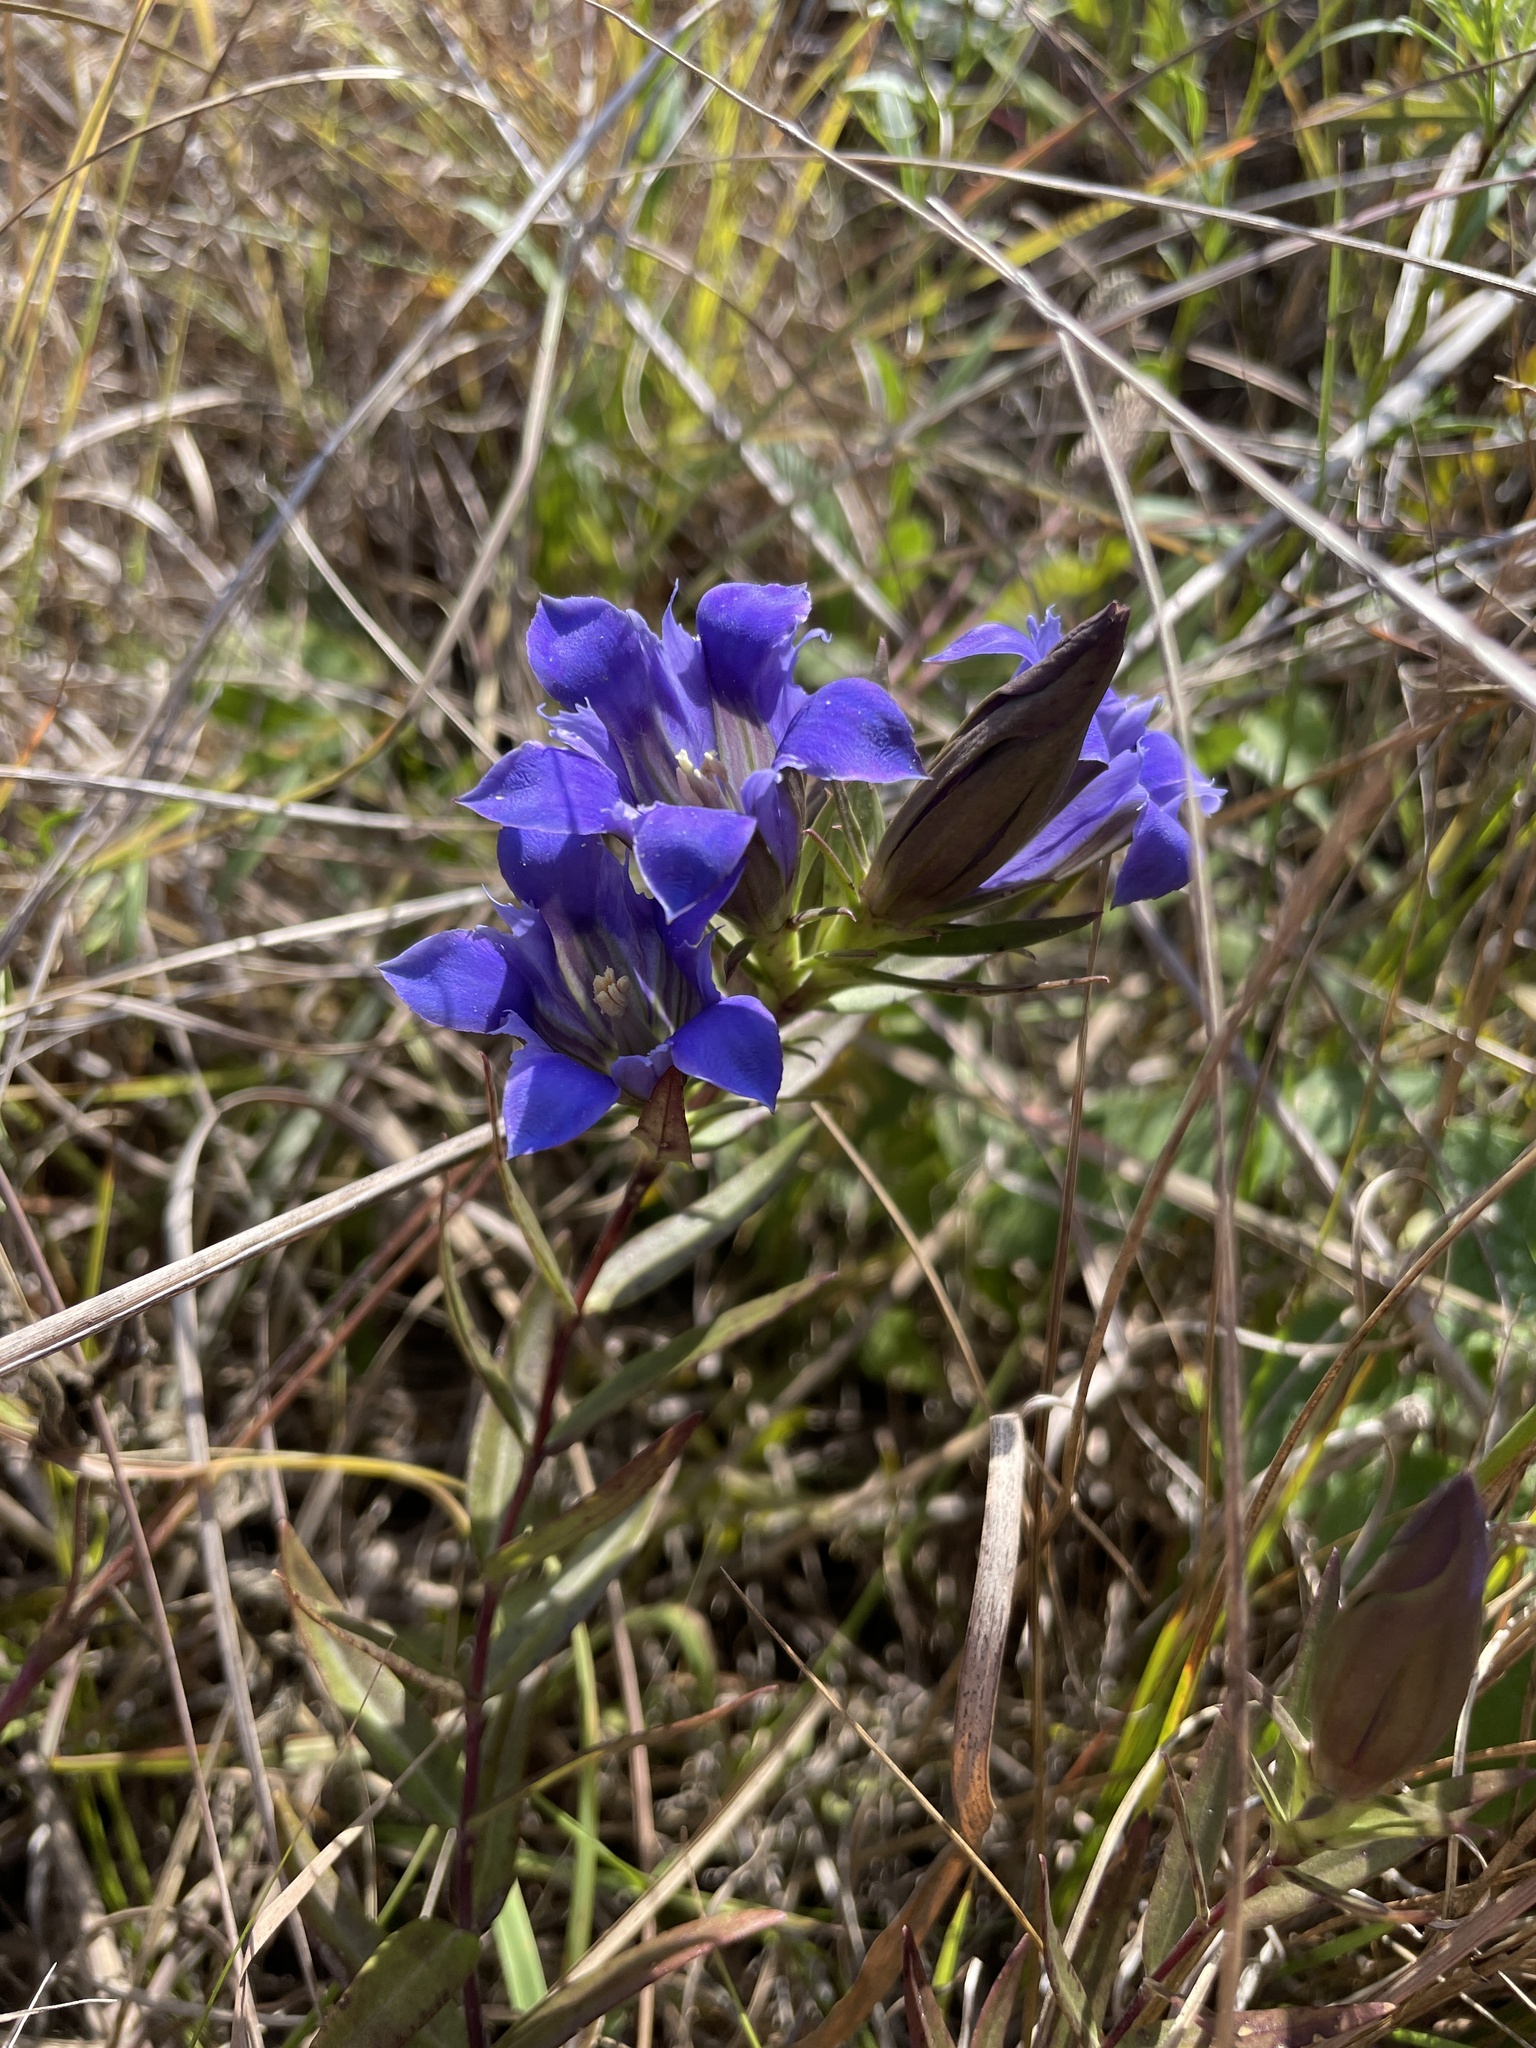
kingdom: Plantae
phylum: Tracheophyta
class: Magnoliopsida
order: Gentianales
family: Gentianaceae
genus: Gentiana
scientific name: Gentiana puberulenta
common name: Downy gentian
